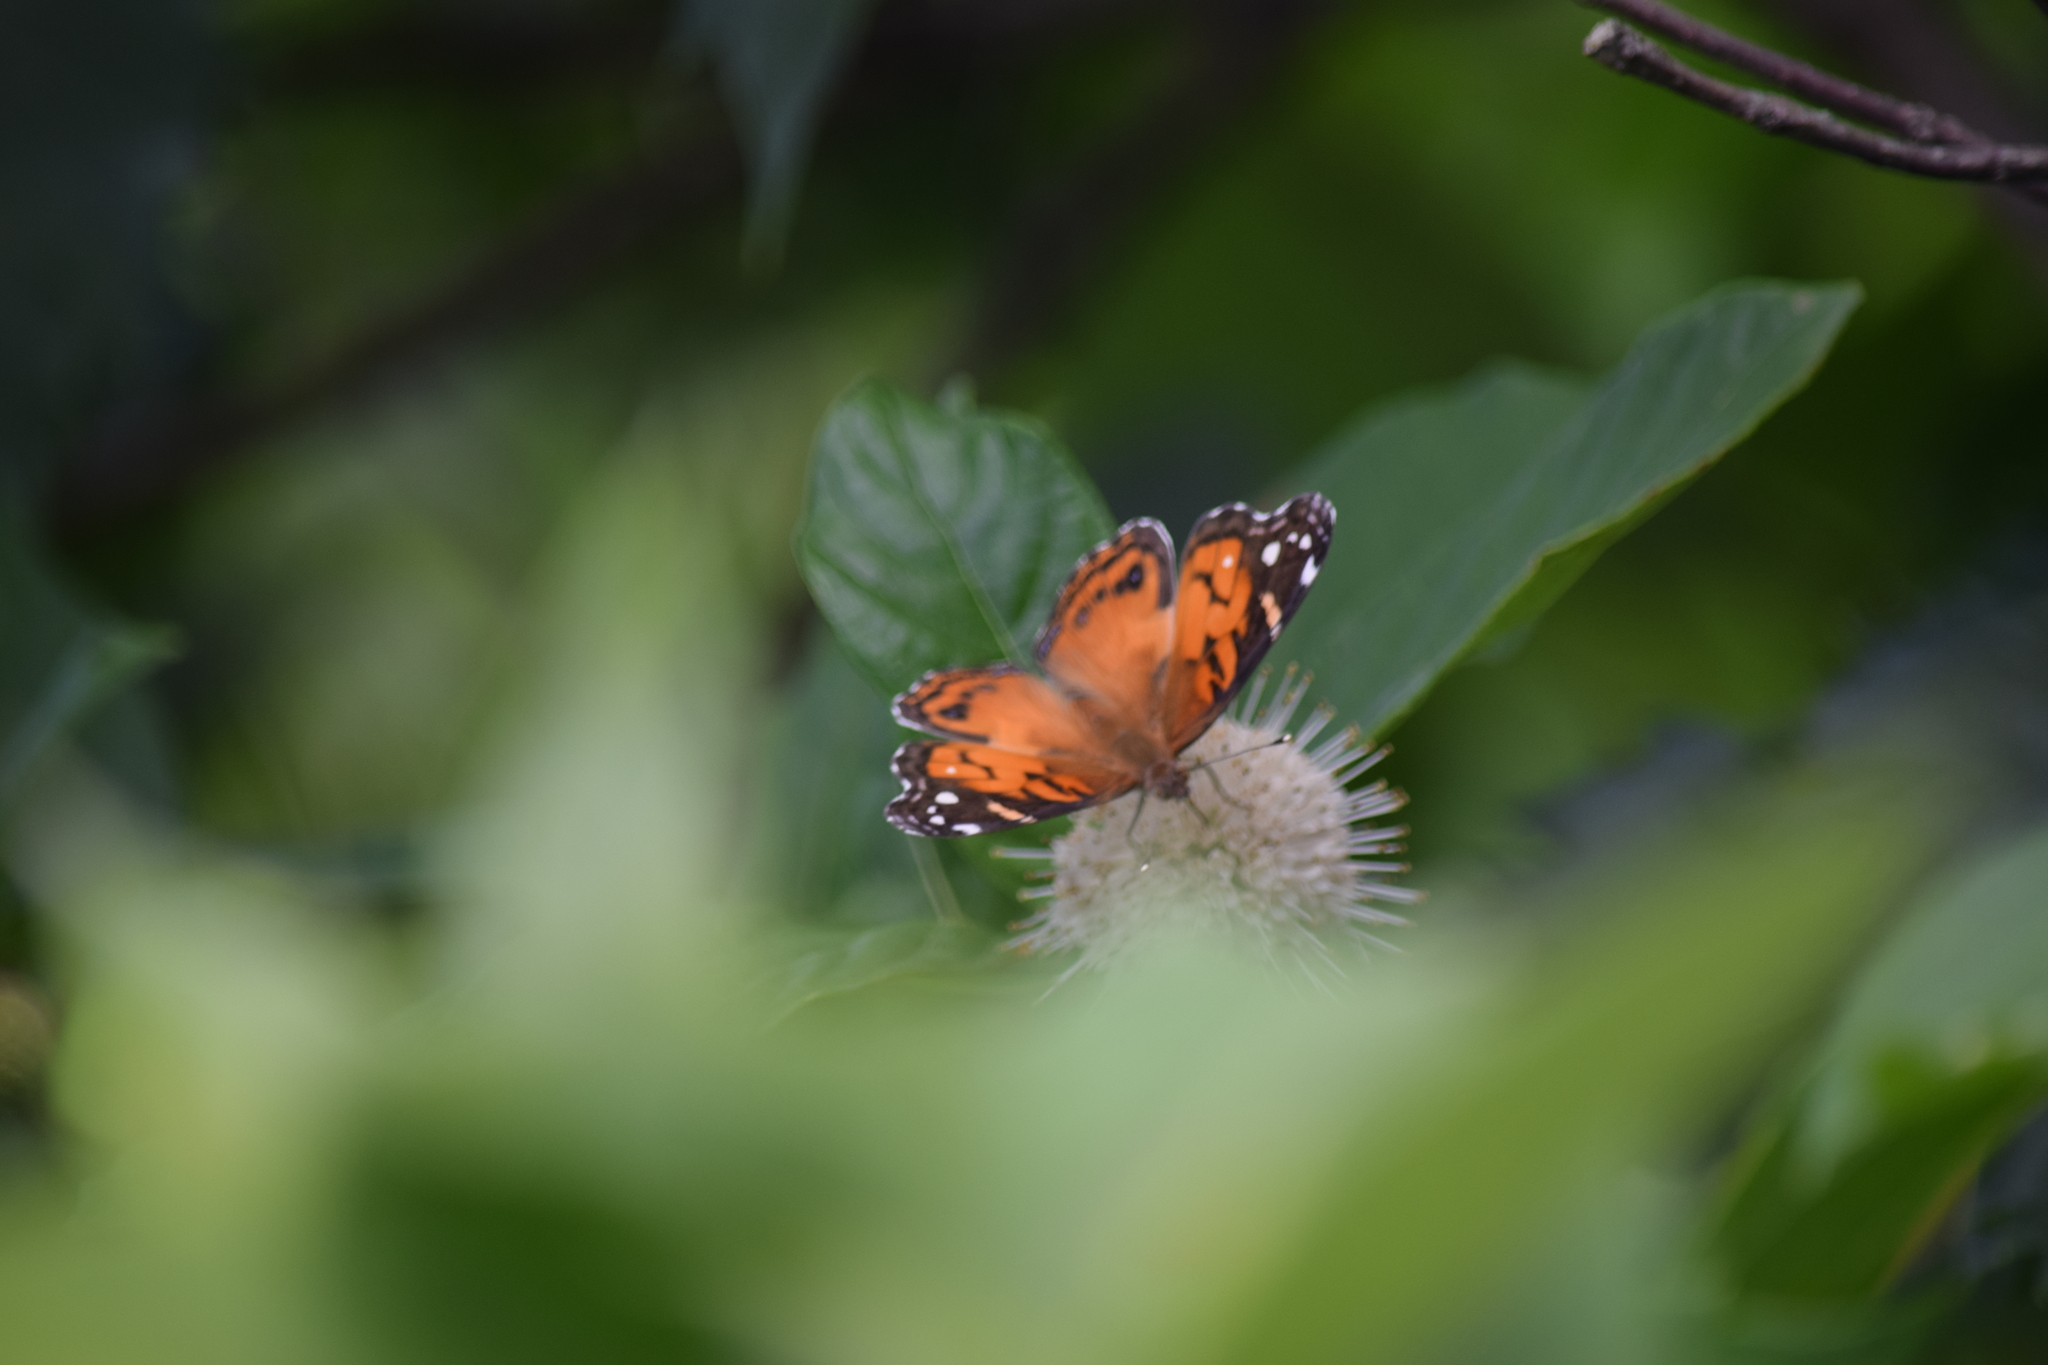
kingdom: Animalia
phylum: Arthropoda
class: Insecta
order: Lepidoptera
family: Nymphalidae
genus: Vanessa
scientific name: Vanessa virginiensis
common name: American lady
